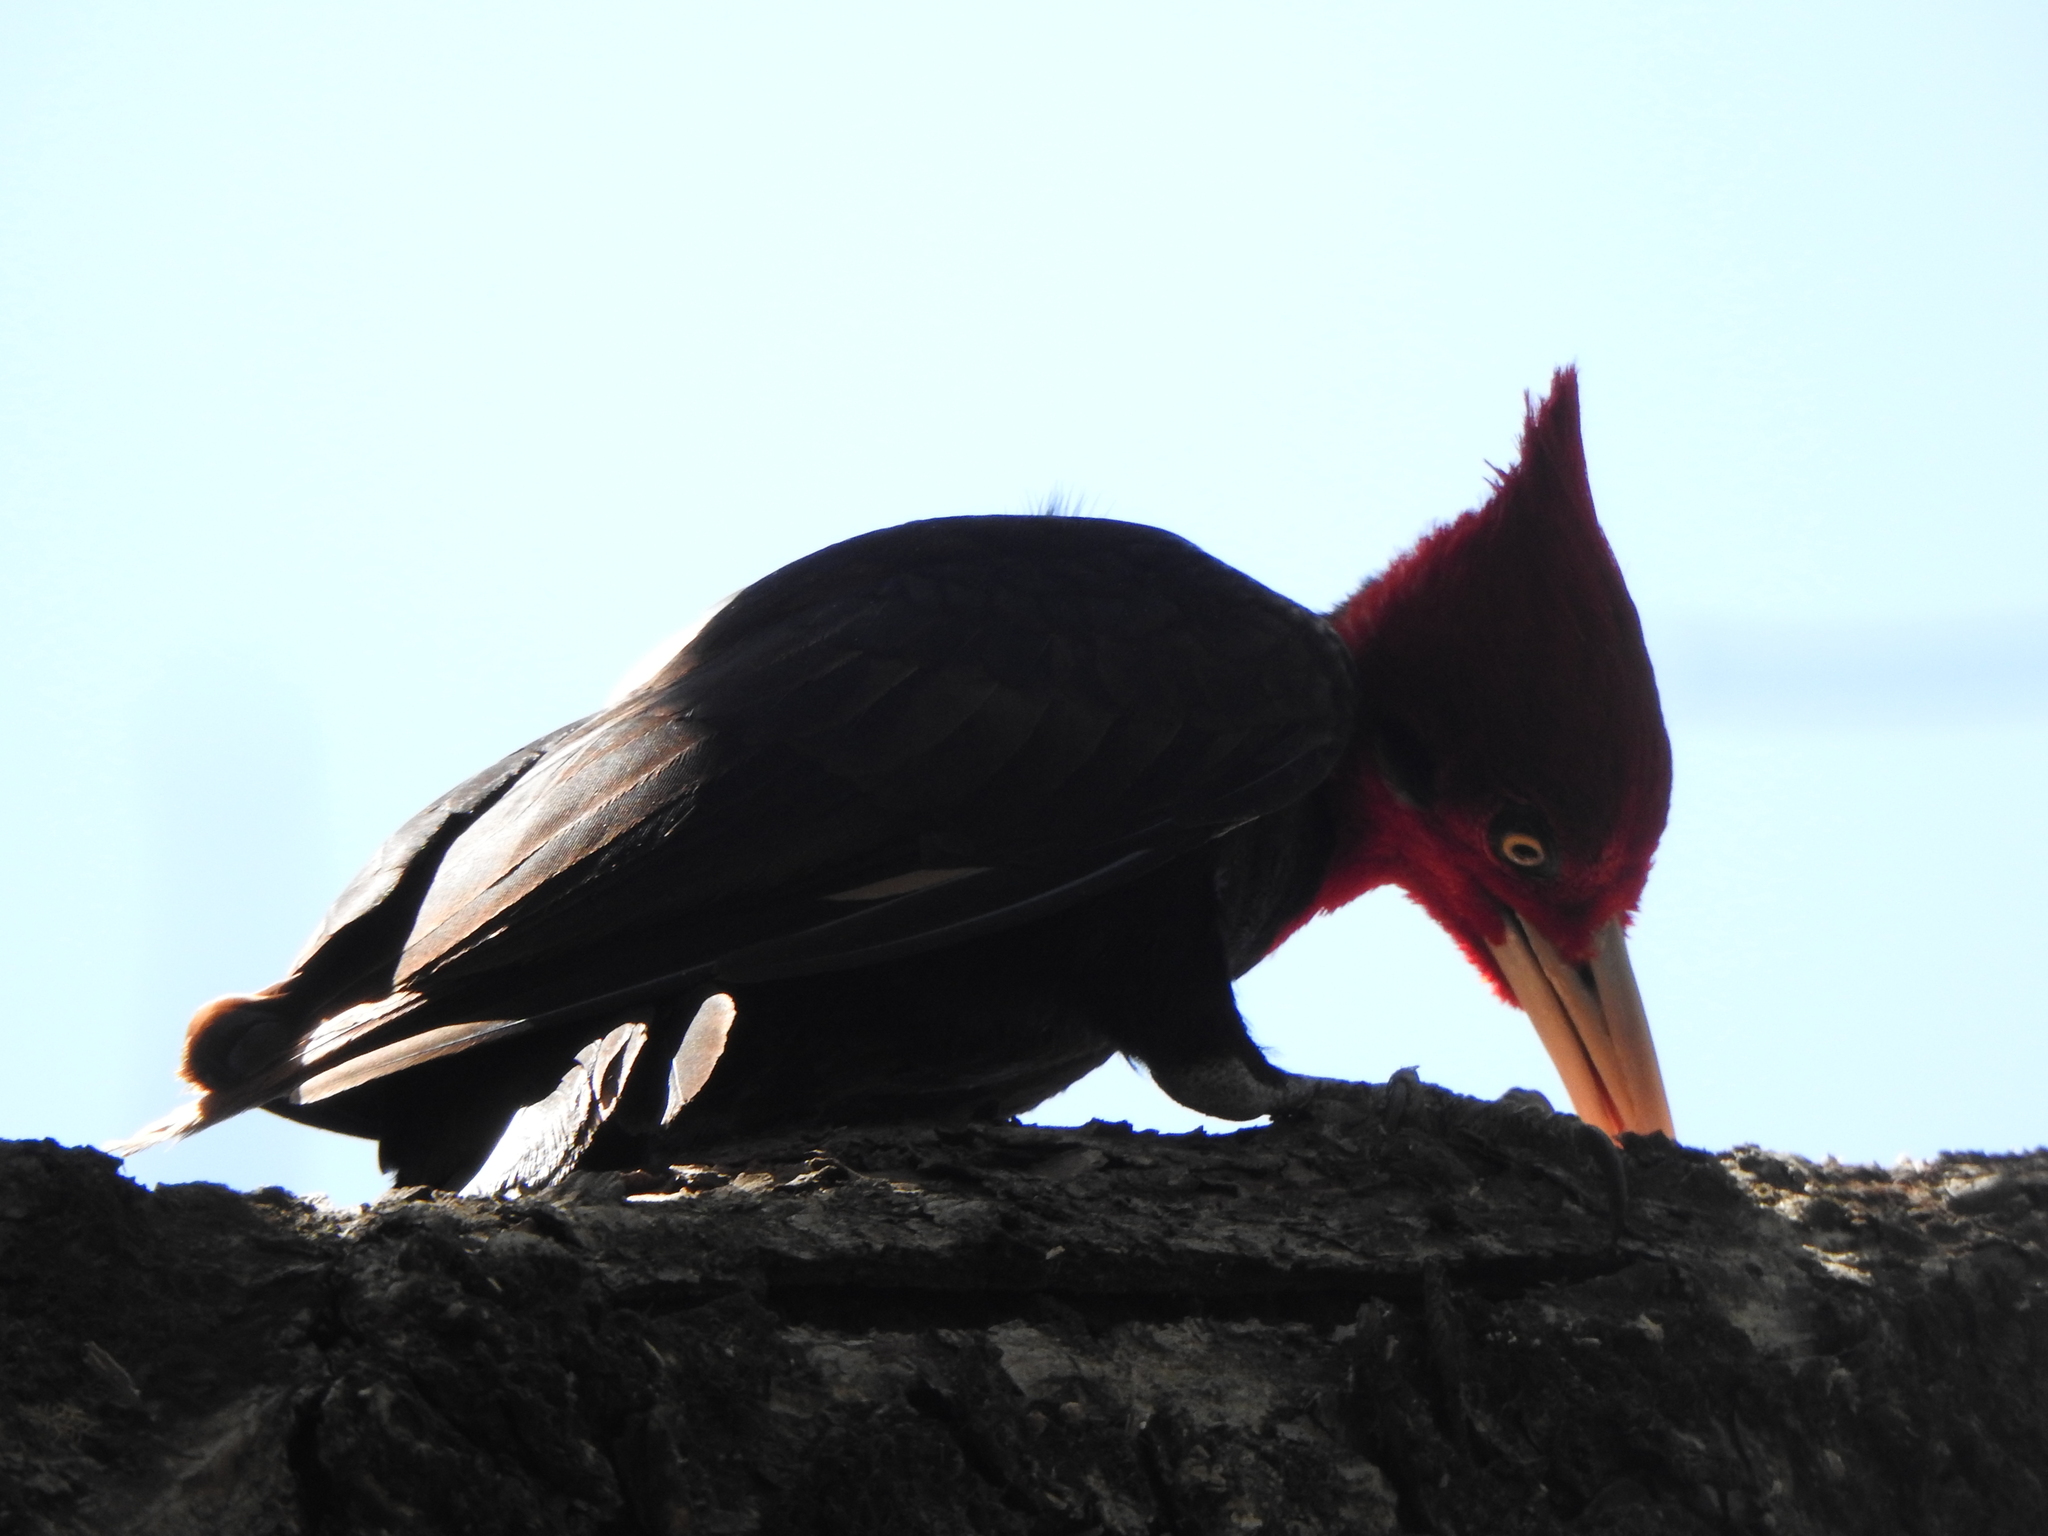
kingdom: Animalia
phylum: Chordata
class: Aves
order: Piciformes
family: Picidae
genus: Campephilus
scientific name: Campephilus leucopogon
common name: Cream-backed woodpecker
